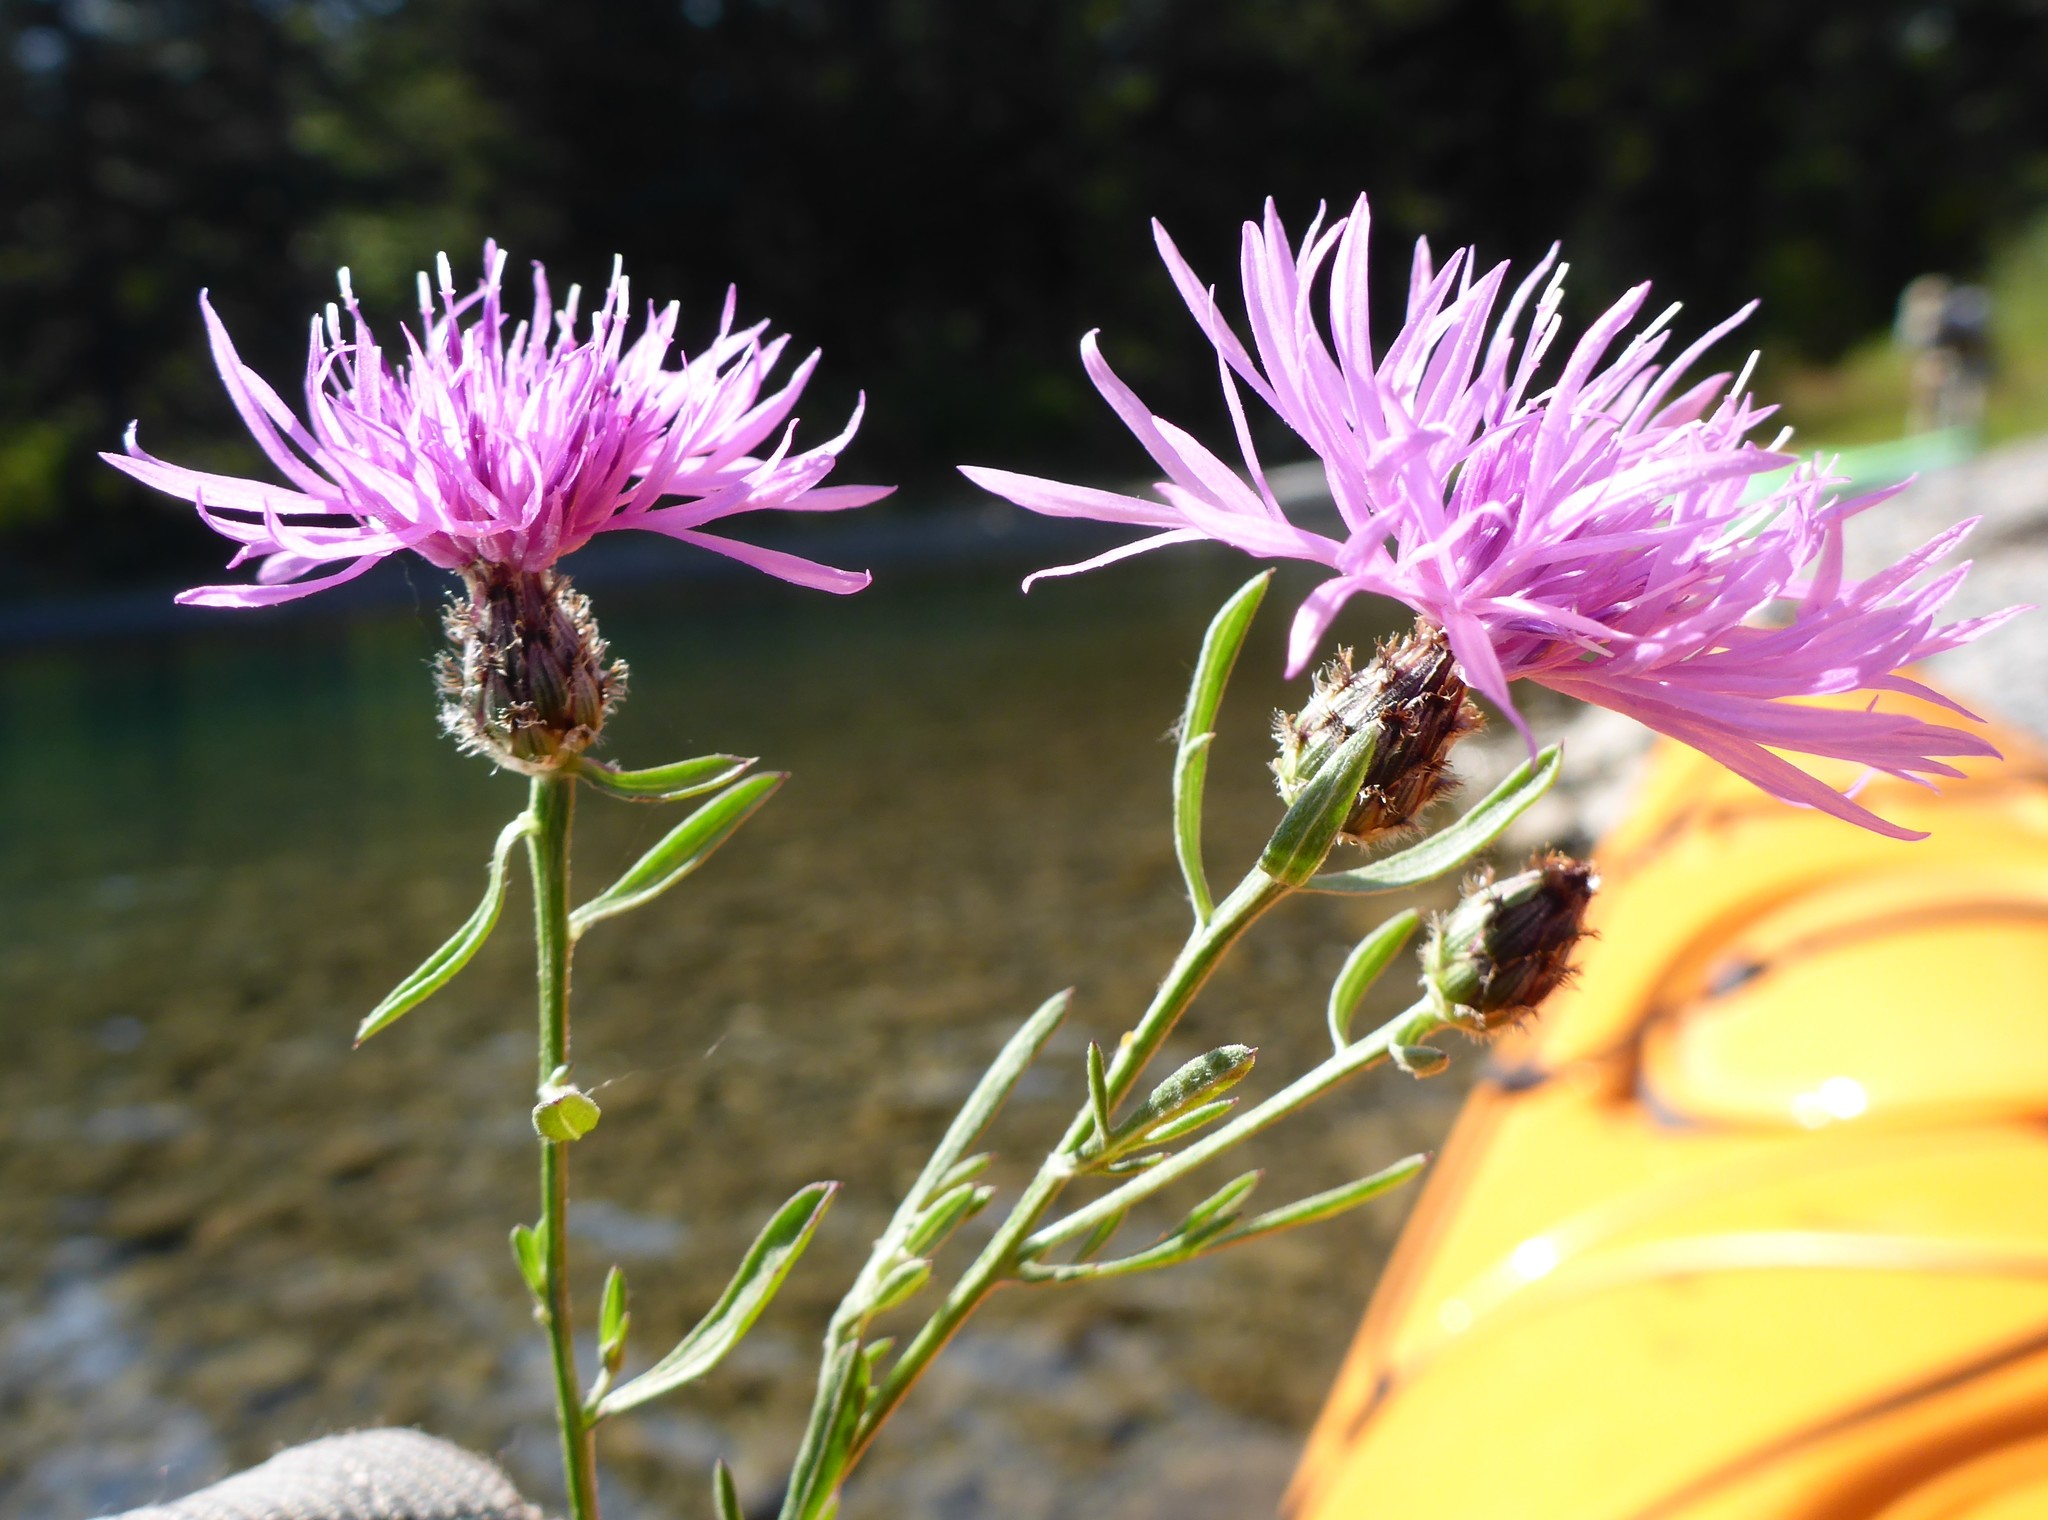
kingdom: Plantae
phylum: Tracheophyta
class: Magnoliopsida
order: Asterales
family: Asteraceae
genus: Centaurea
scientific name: Centaurea stoebe
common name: Spotted knapweed
